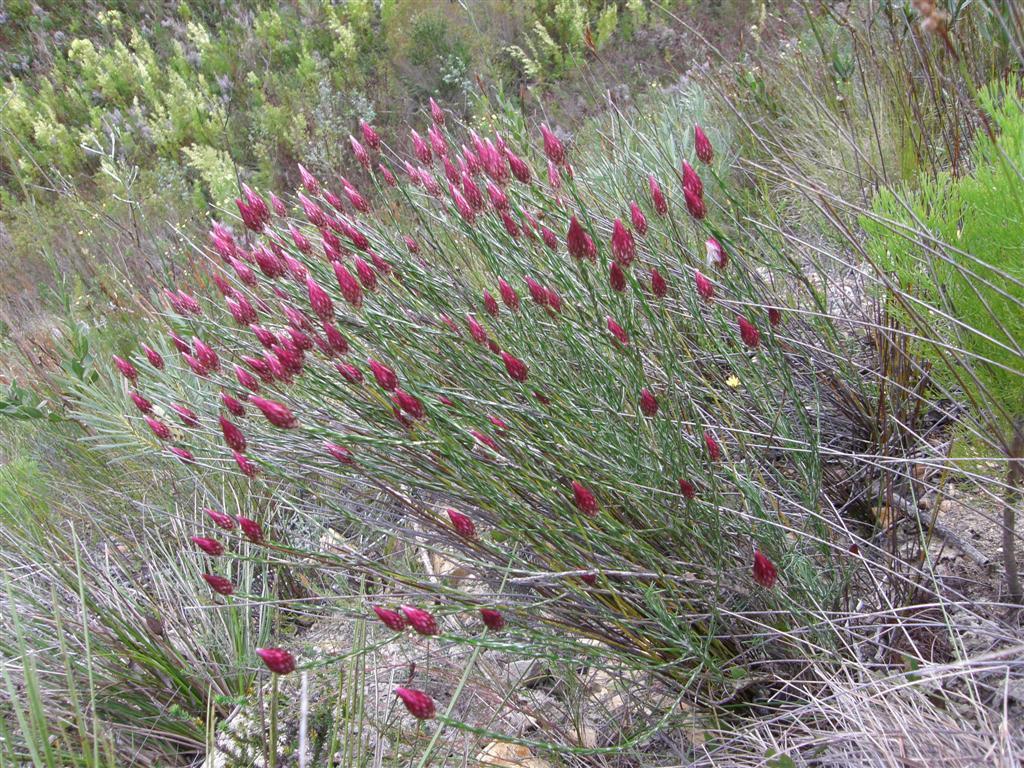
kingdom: Plantae
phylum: Tracheophyta
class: Magnoliopsida
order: Asterales
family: Asteraceae
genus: Edmondia
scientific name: Edmondia sesamoides
